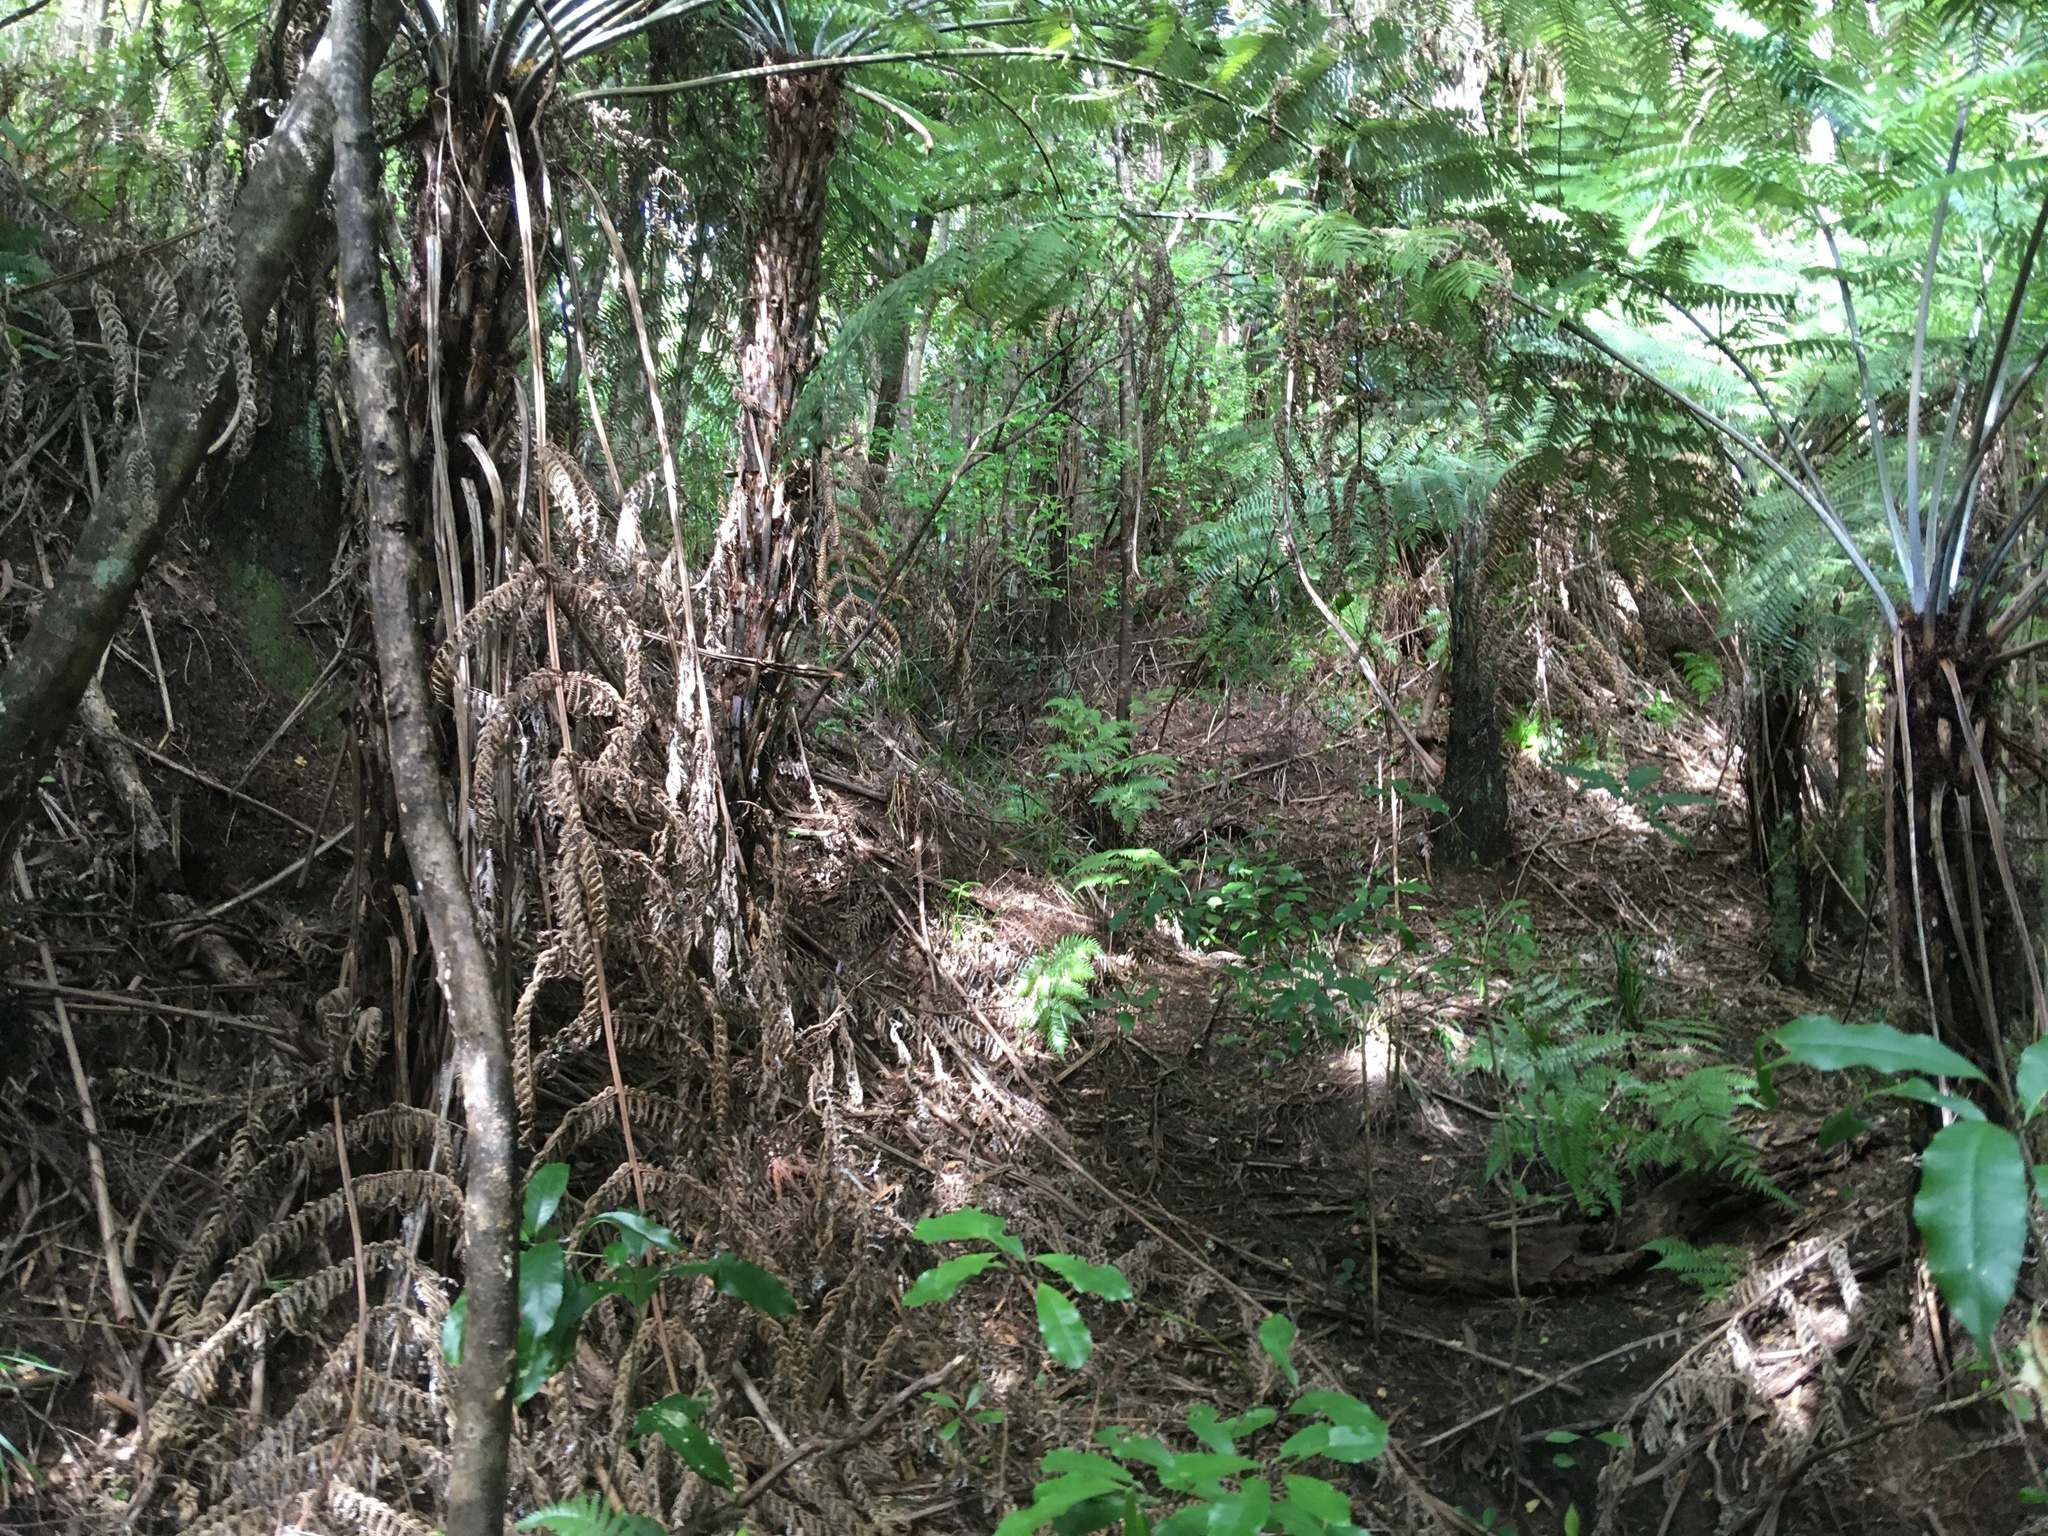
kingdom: Plantae
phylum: Tracheophyta
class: Polypodiopsida
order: Cyatheales
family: Cyatheaceae
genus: Alsophila
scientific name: Alsophila dealbata
